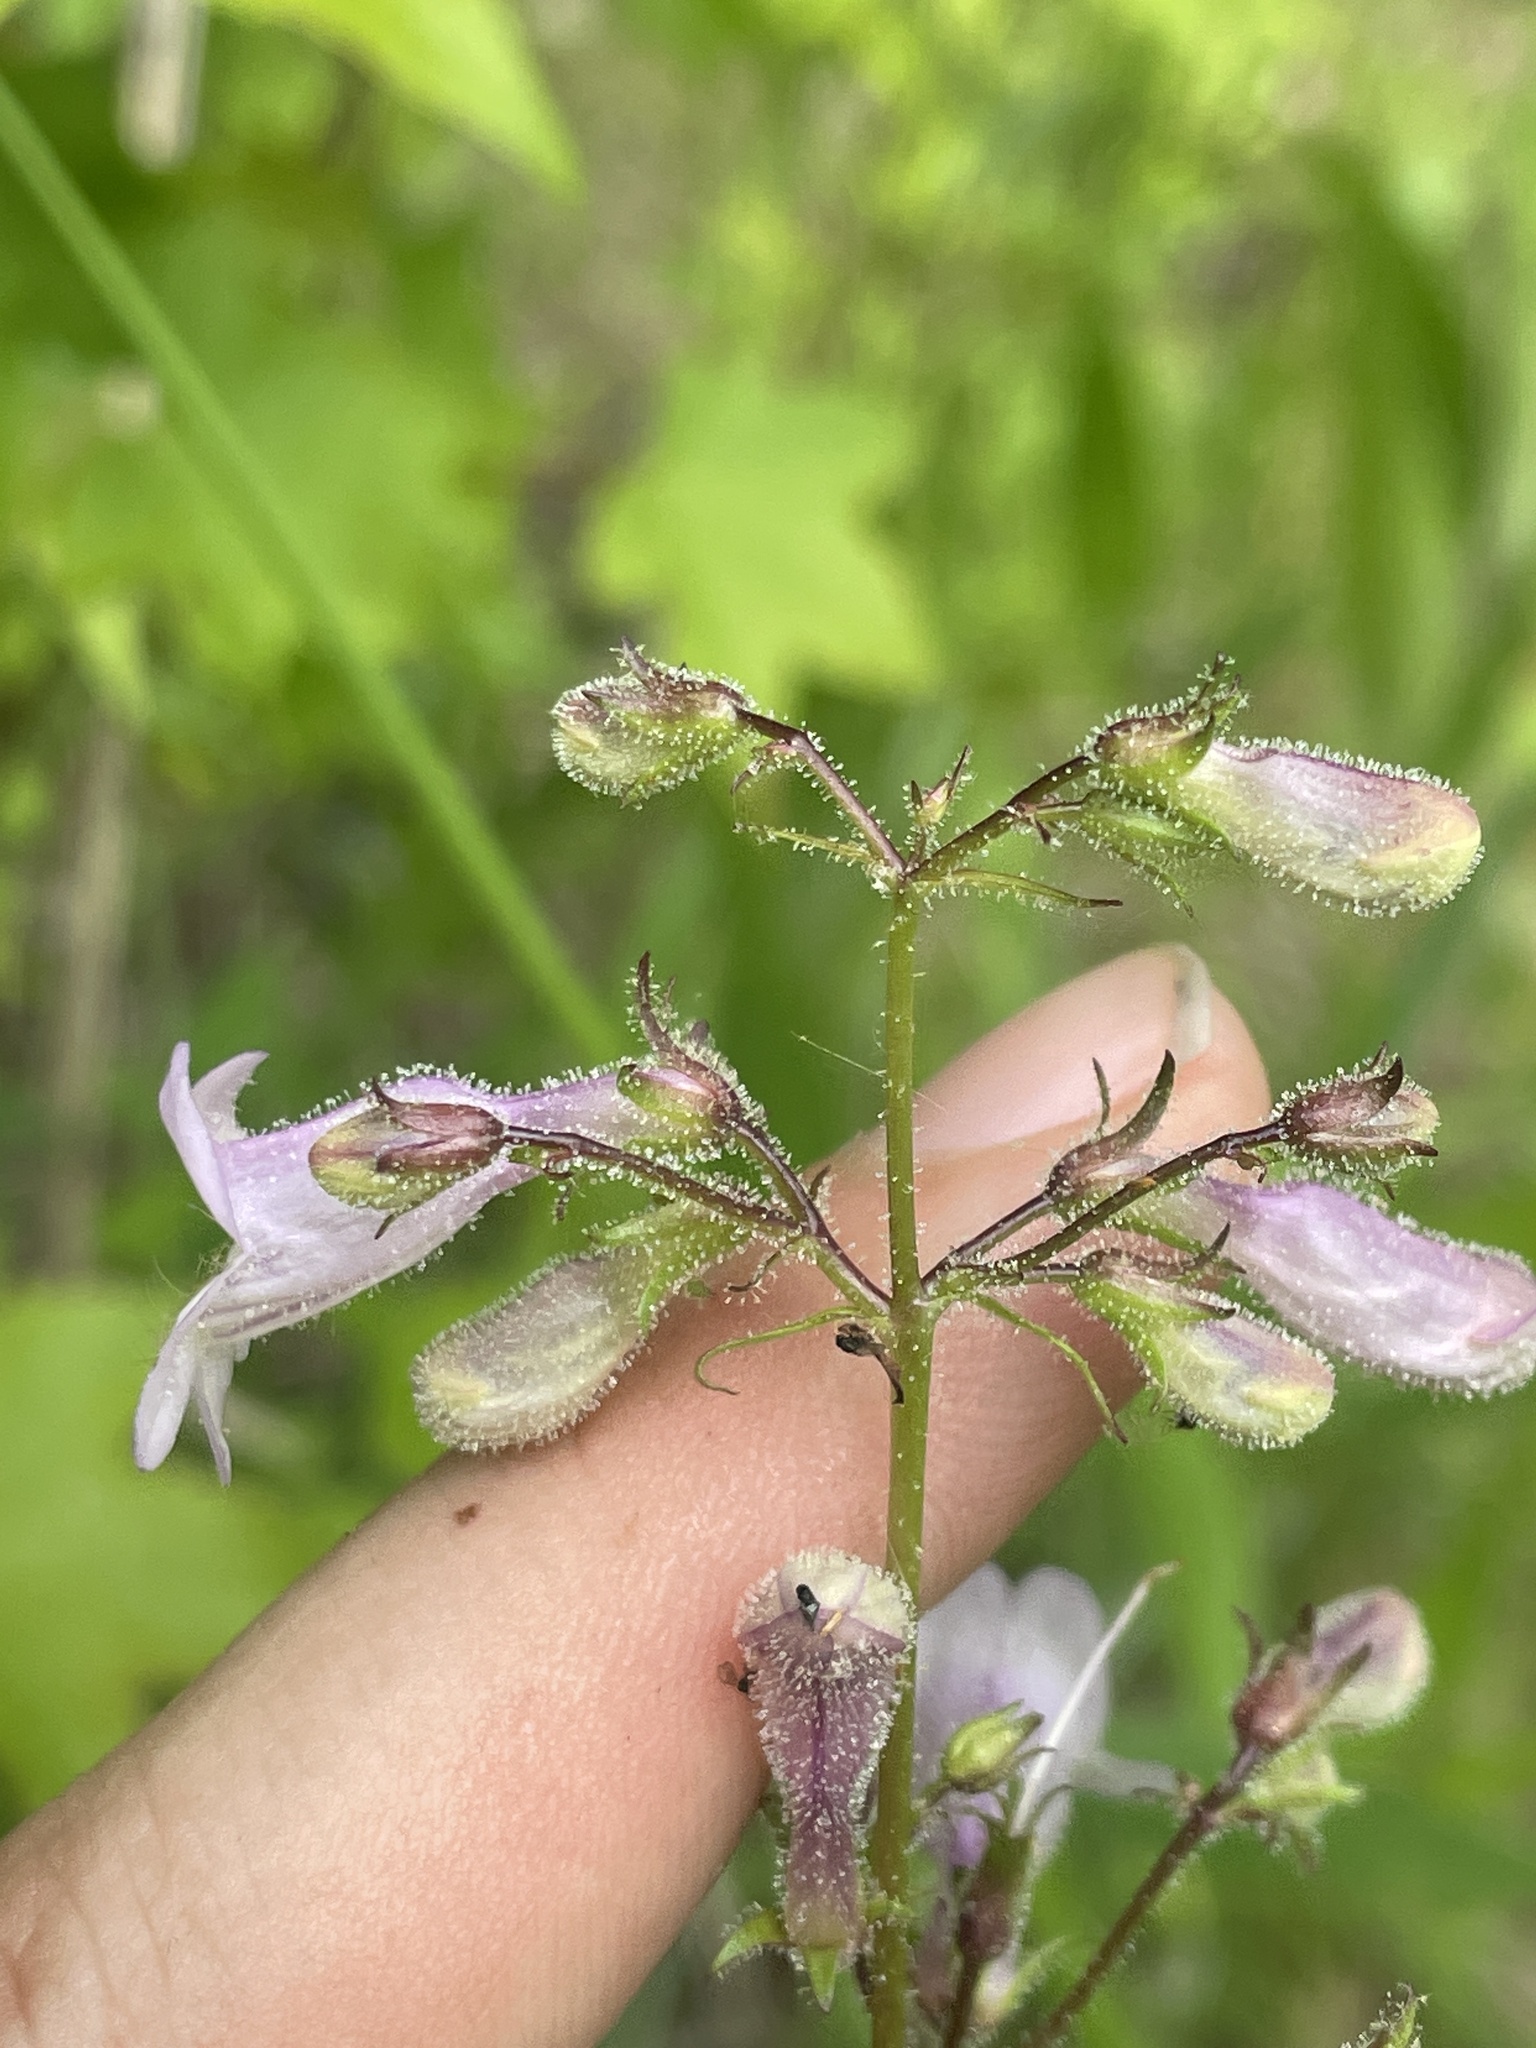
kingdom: Plantae
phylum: Tracheophyta
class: Magnoliopsida
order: Lamiales
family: Plantaginaceae
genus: Penstemon
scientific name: Penstemon laevigatus
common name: Eastern beardtongue
